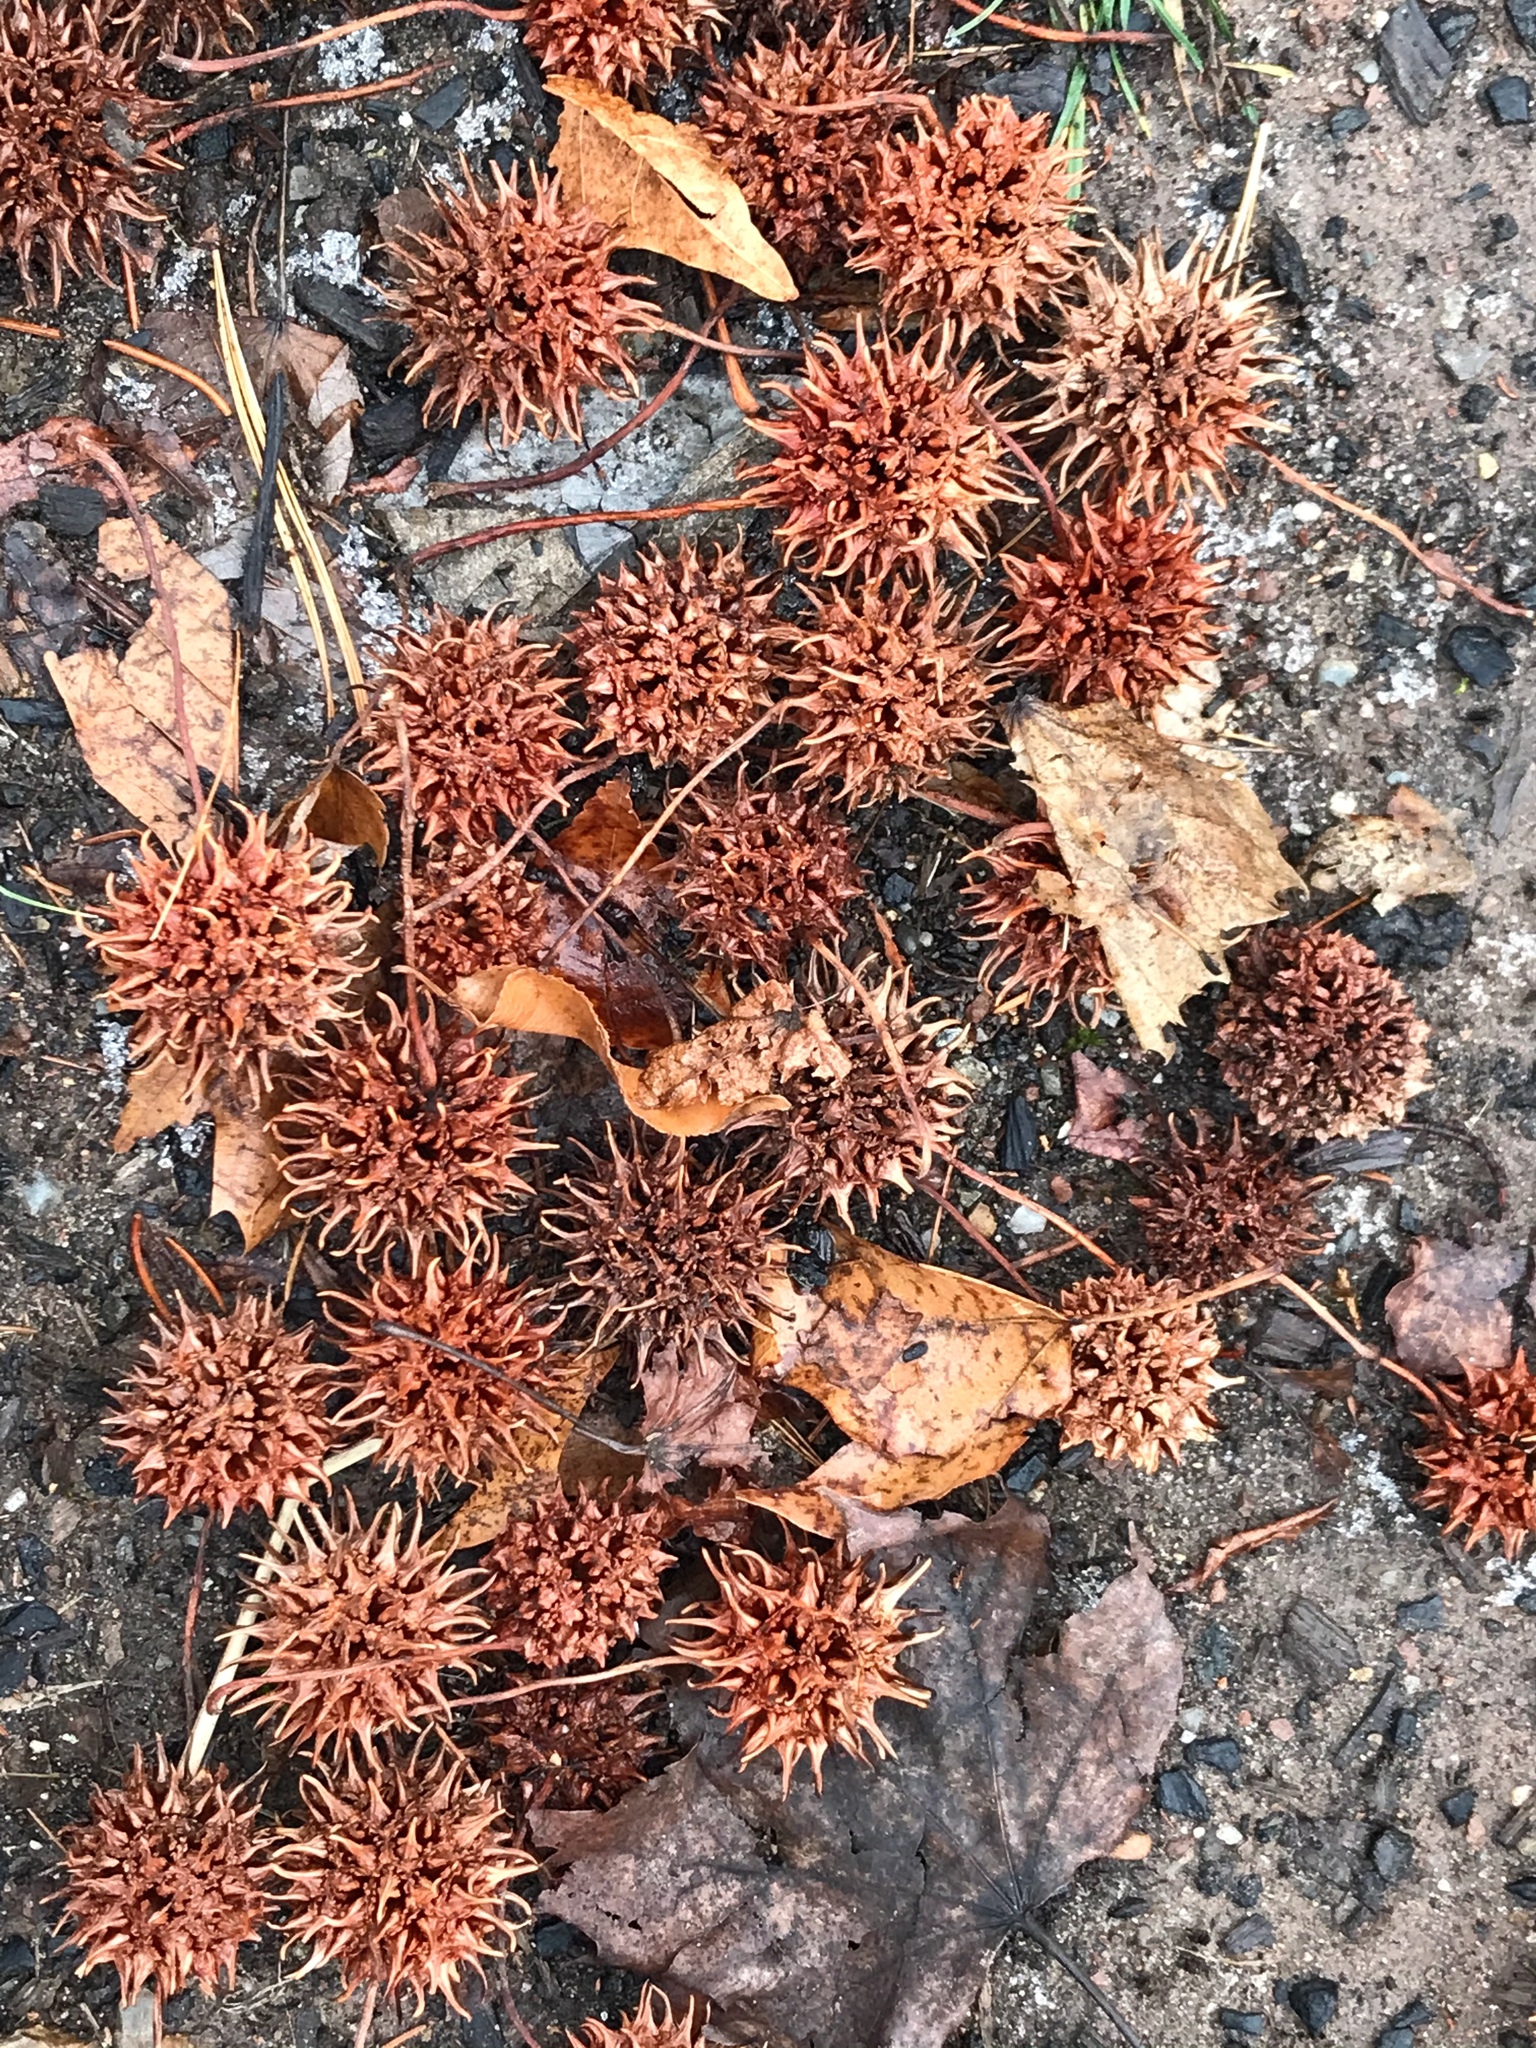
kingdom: Plantae
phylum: Tracheophyta
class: Magnoliopsida
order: Saxifragales
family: Altingiaceae
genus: Liquidambar
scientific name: Liquidambar styraciflua
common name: Sweet gum
